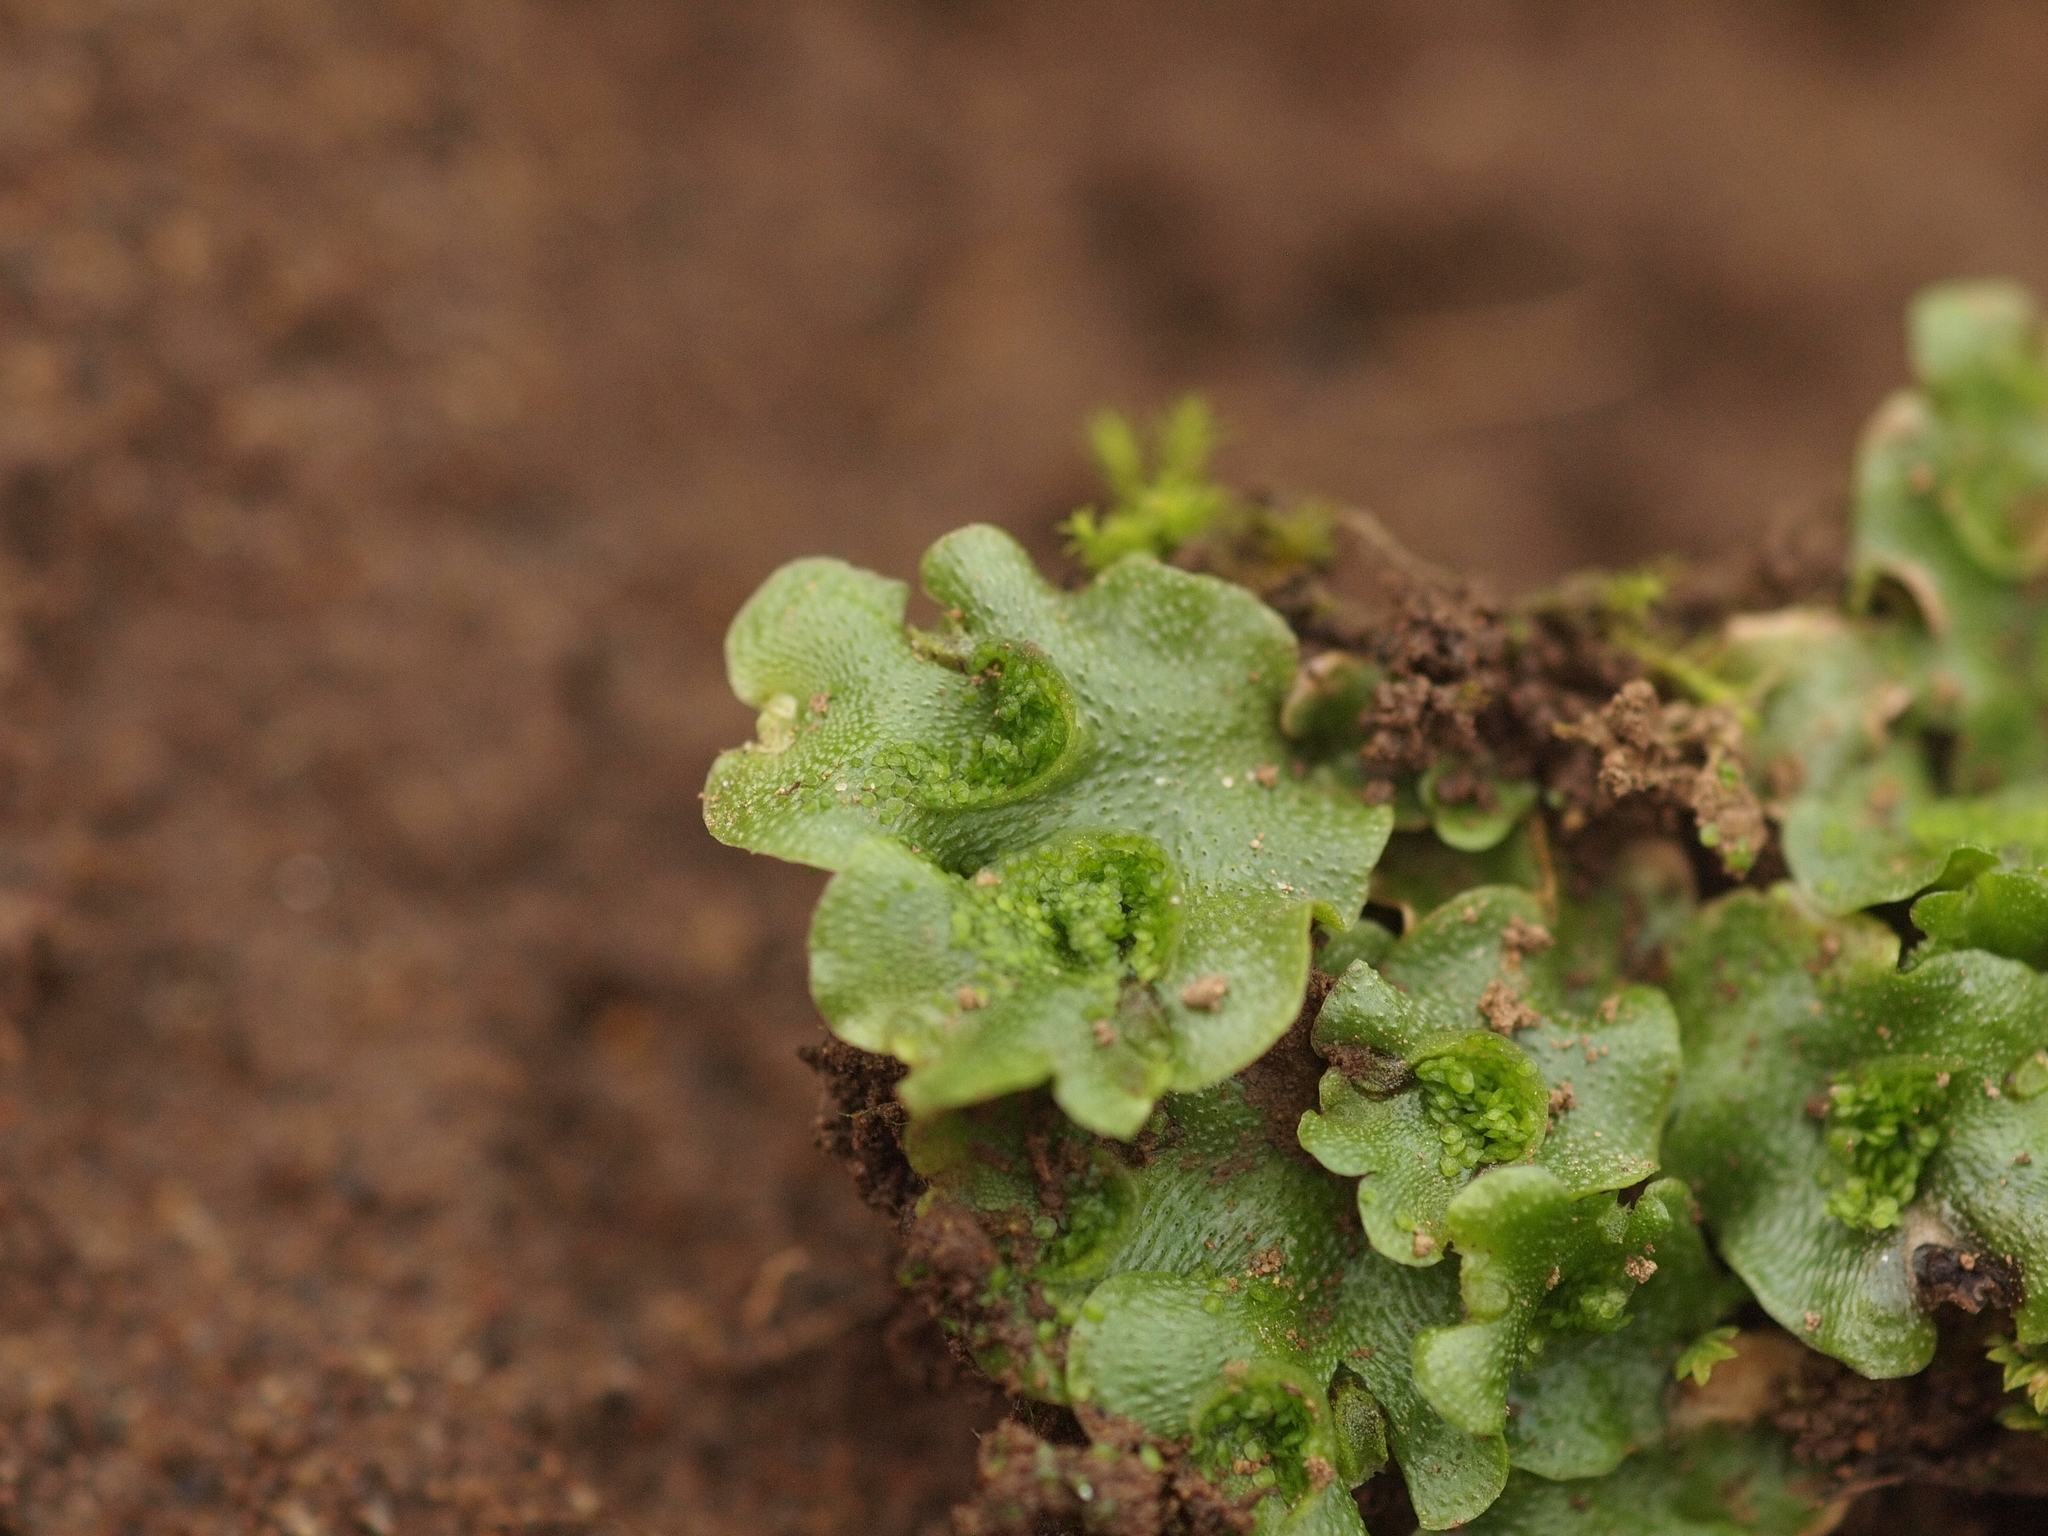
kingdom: Plantae
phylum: Marchantiophyta
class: Marchantiopsida
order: Lunulariales
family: Lunulariaceae
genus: Lunularia
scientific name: Lunularia cruciata
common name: Crescent-cup liverwort
